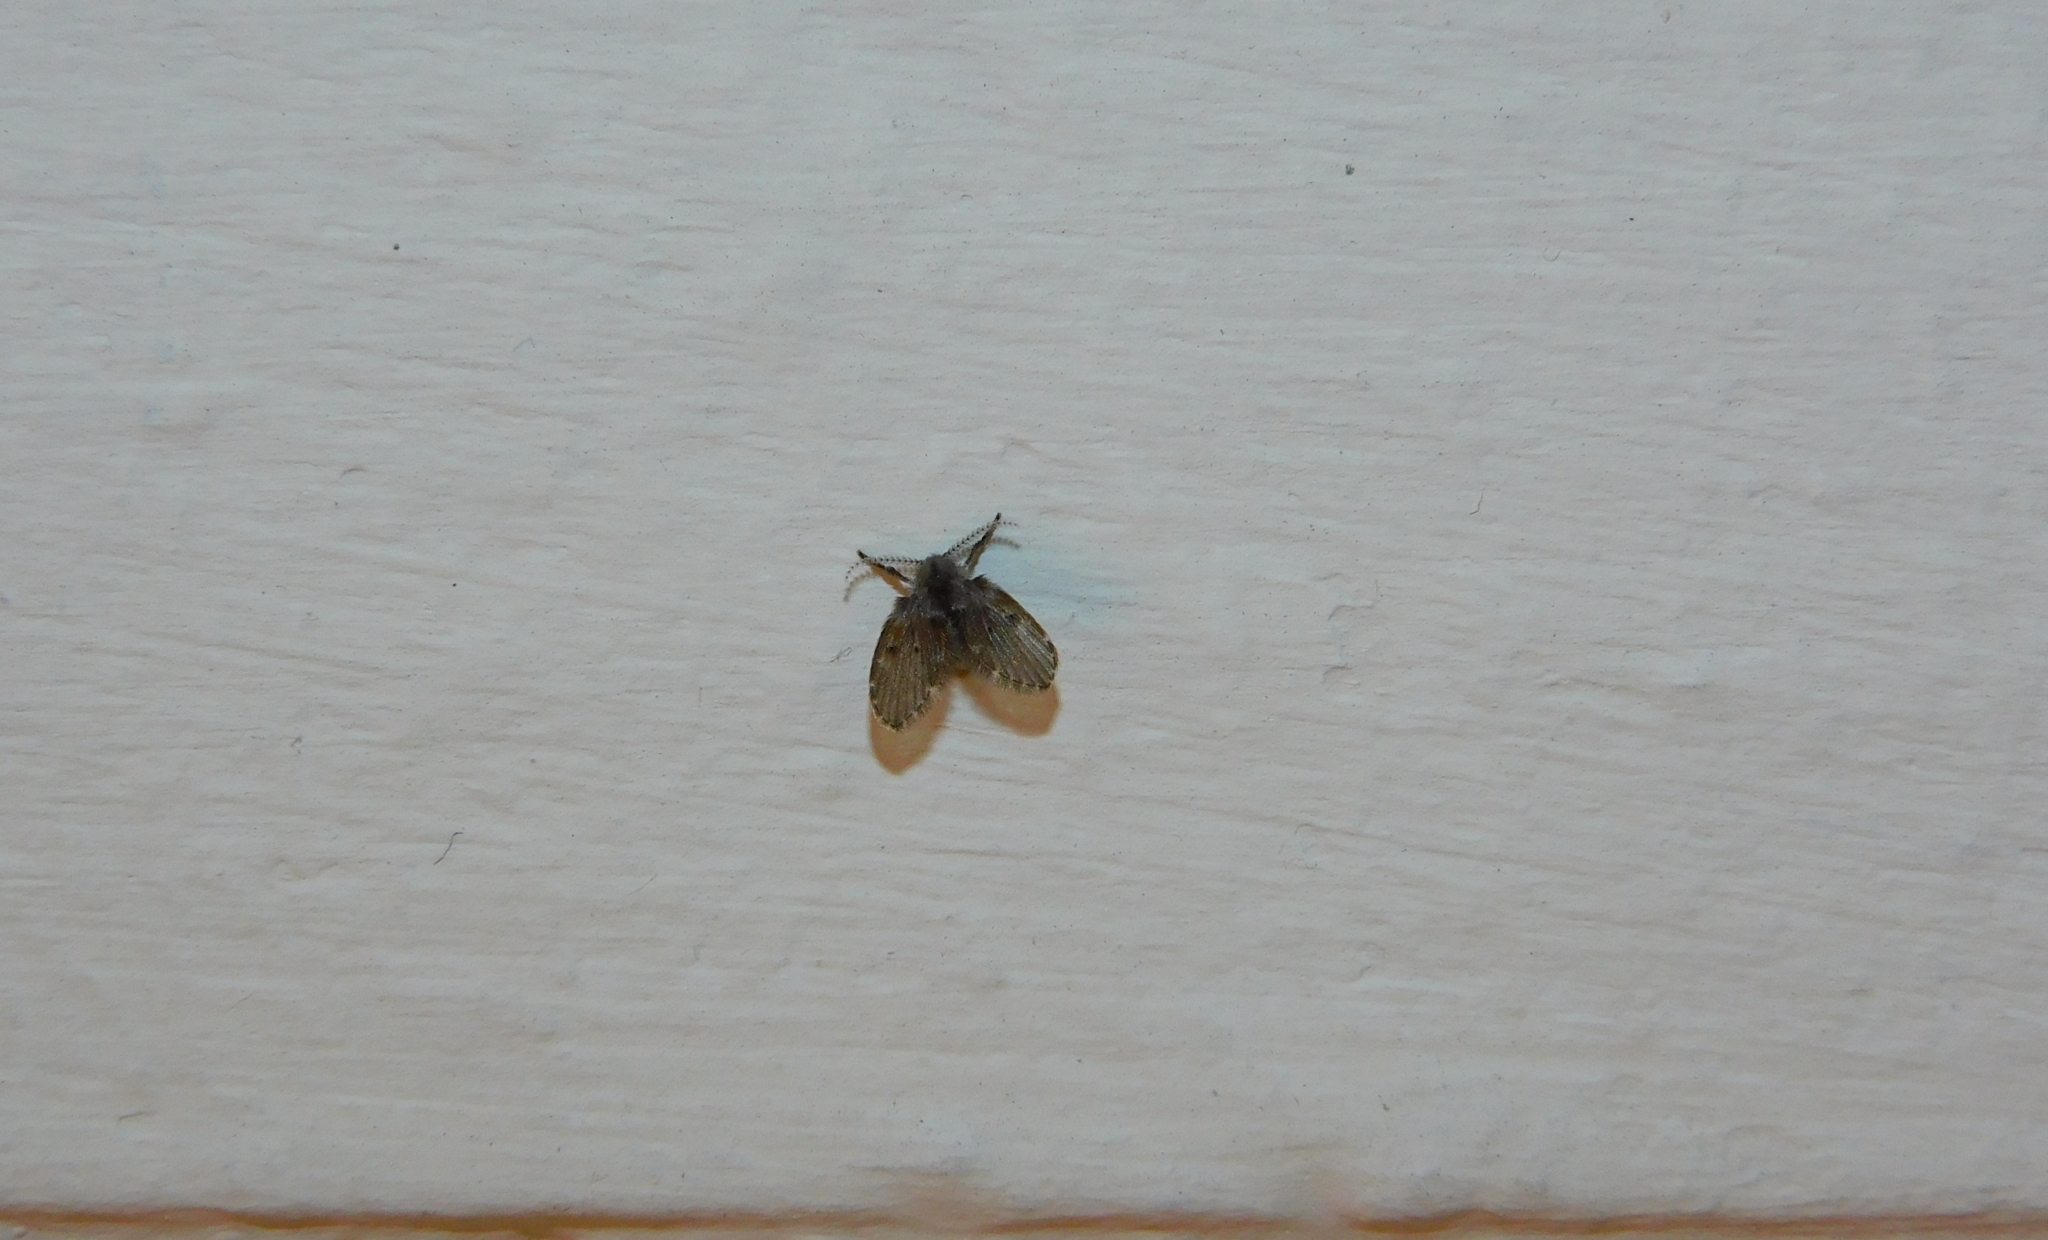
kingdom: Animalia
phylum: Arthropoda
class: Insecta
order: Diptera
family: Psychodidae
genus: Clogmia
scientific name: Clogmia albipunctatus
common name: White-spotted moth fly
